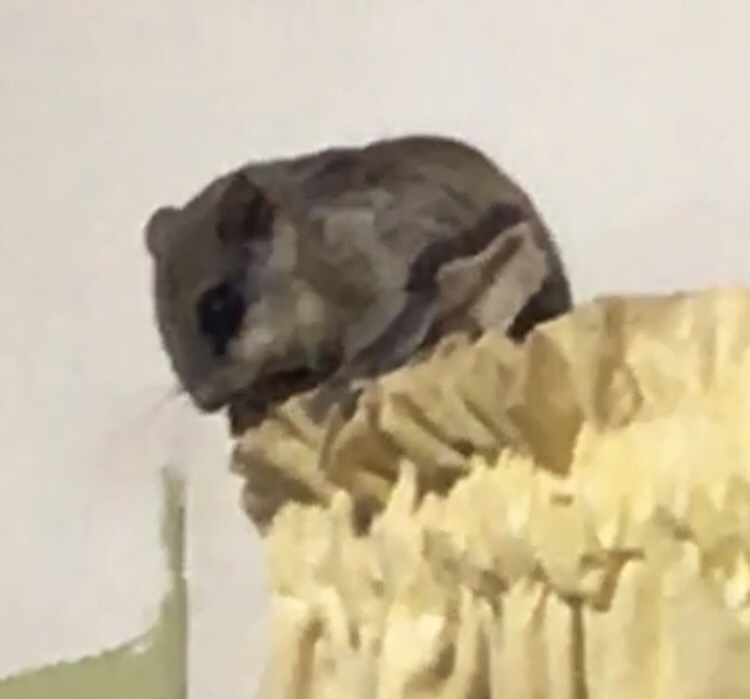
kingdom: Animalia
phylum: Chordata
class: Mammalia
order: Rodentia
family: Sciuridae
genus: Glaucomys
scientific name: Glaucomys volans
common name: Southern flying squirrel
